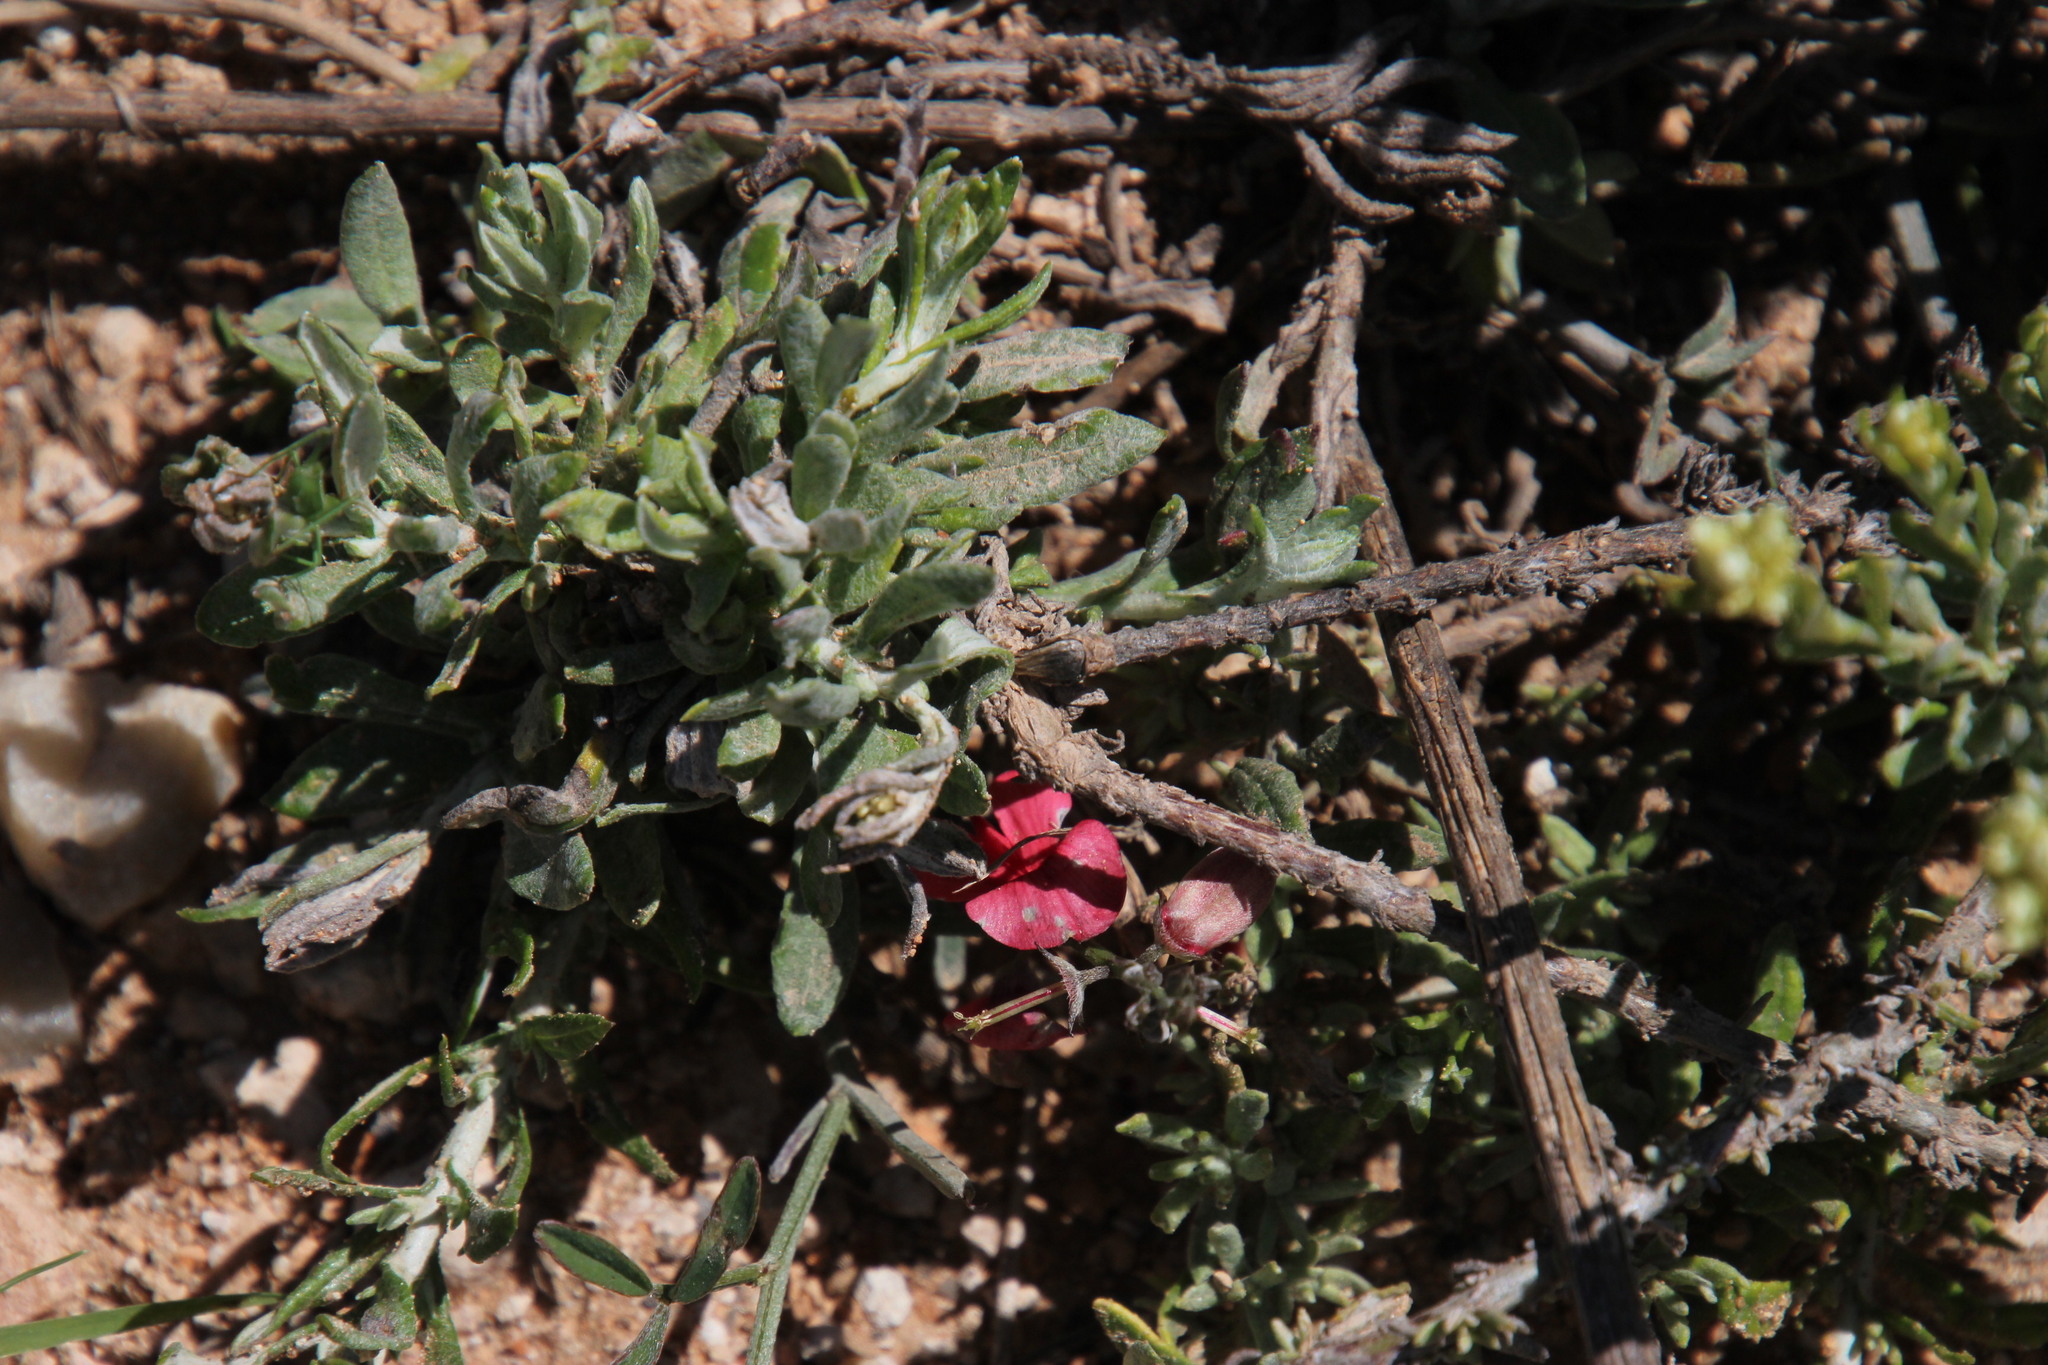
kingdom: Plantae
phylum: Tracheophyta
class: Magnoliopsida
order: Fabales
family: Fabaceae
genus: Indigofera
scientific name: Indigofera disticha
